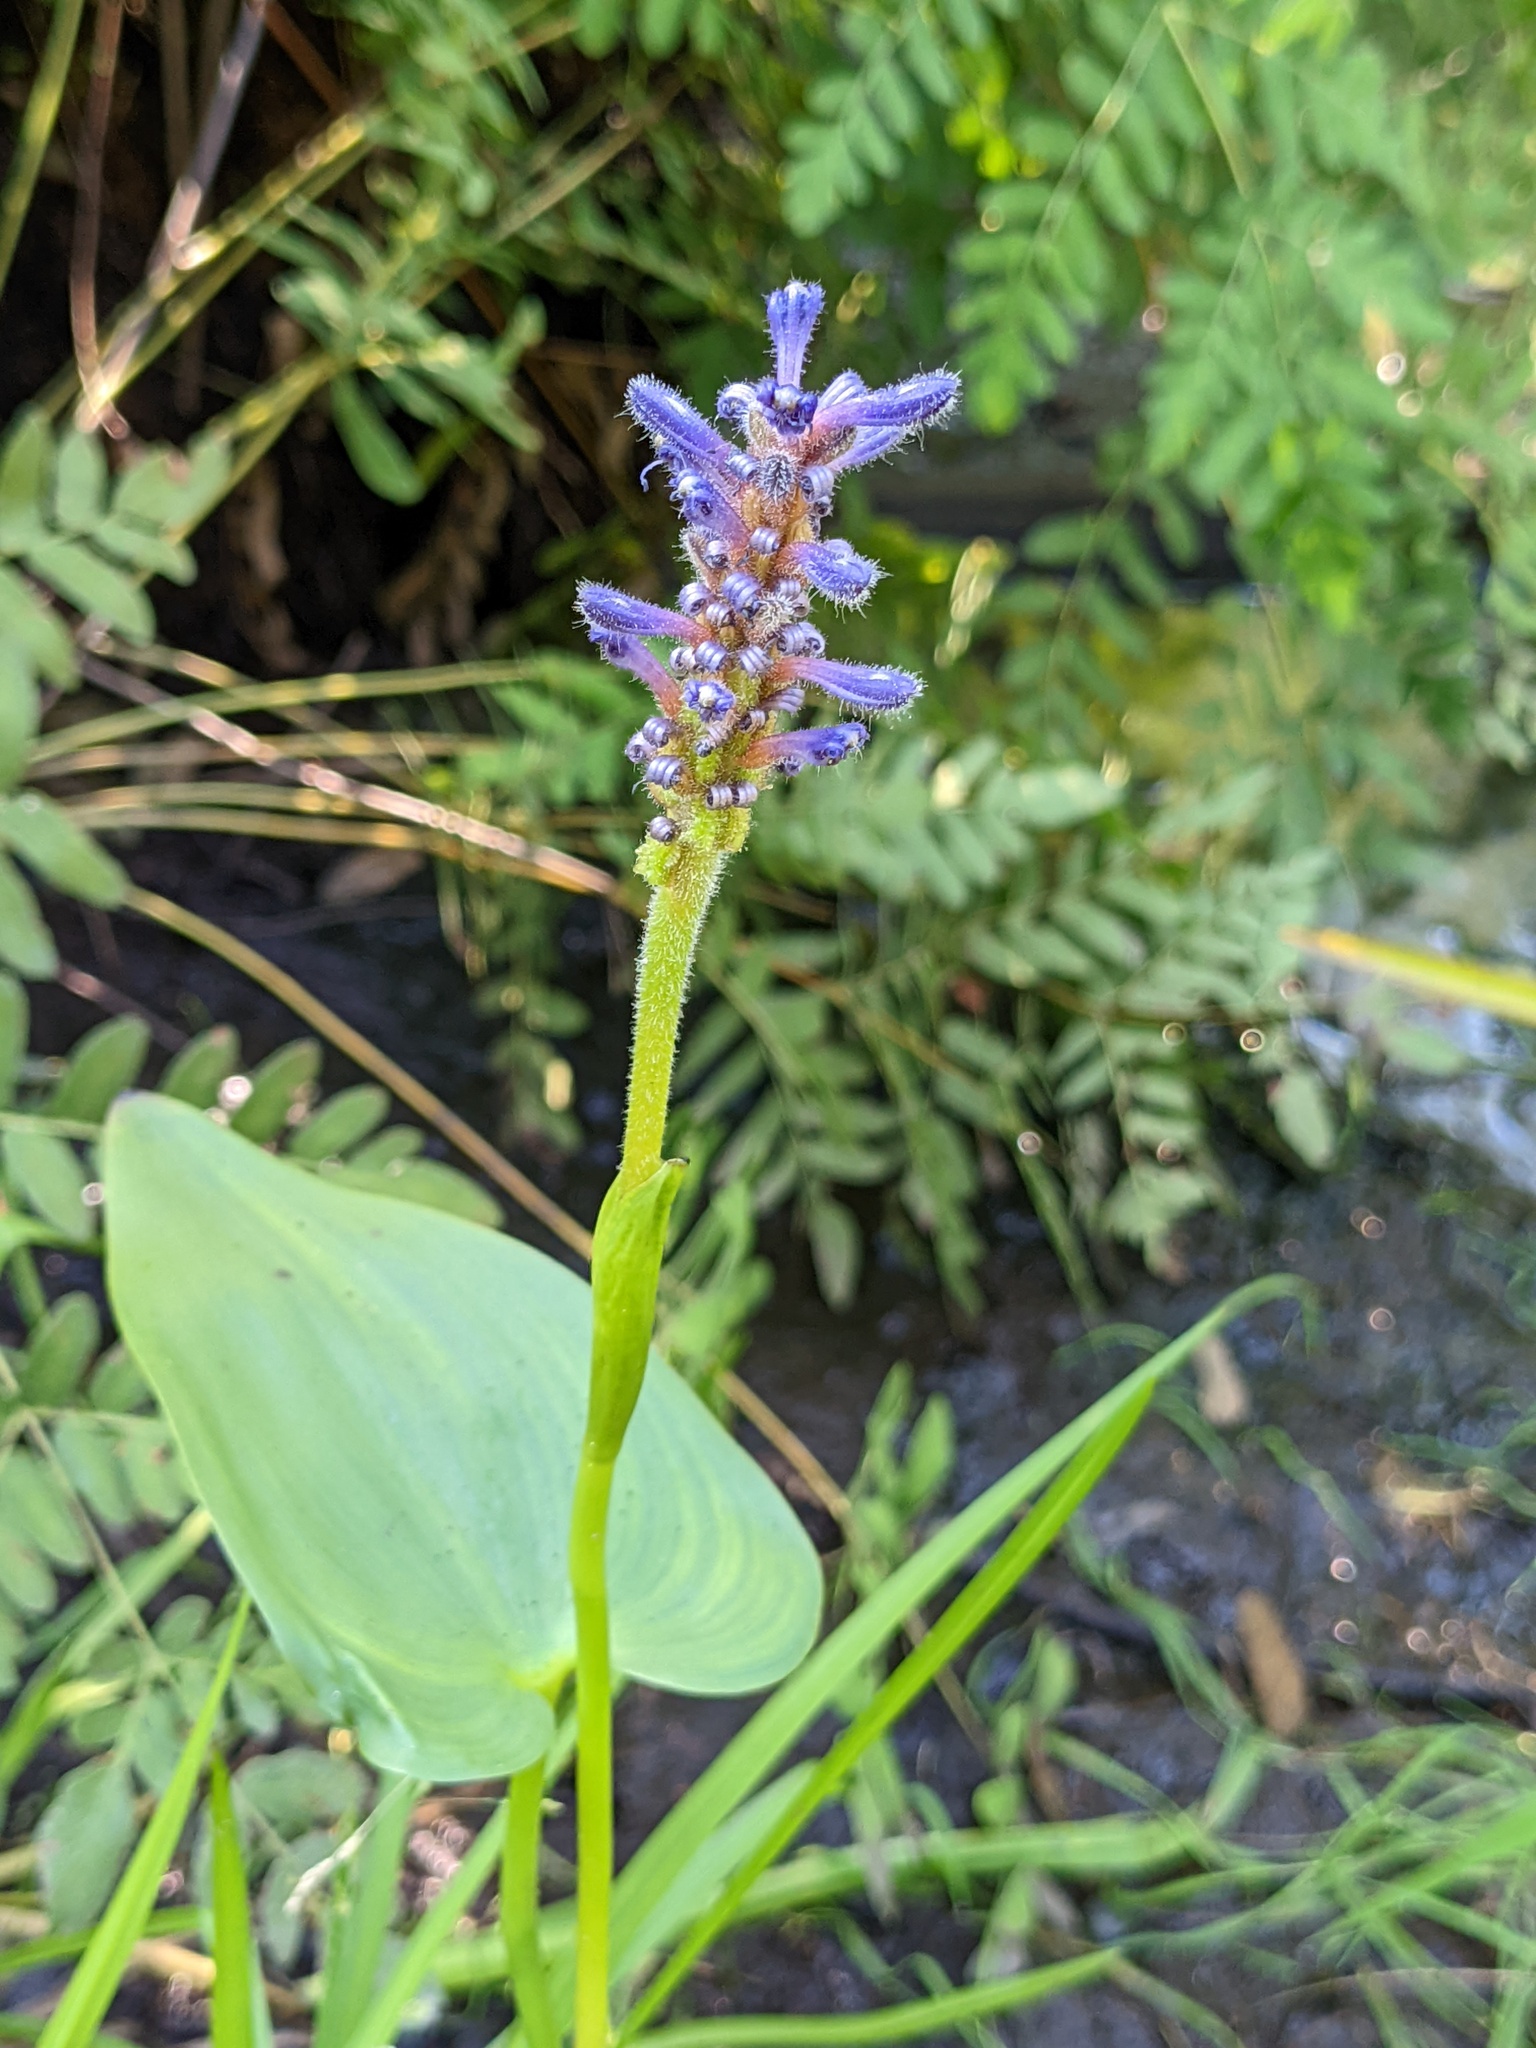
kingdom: Plantae
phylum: Tracheophyta
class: Liliopsida
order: Commelinales
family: Pontederiaceae
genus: Pontederia
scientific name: Pontederia cordata
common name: Pickerelweed
